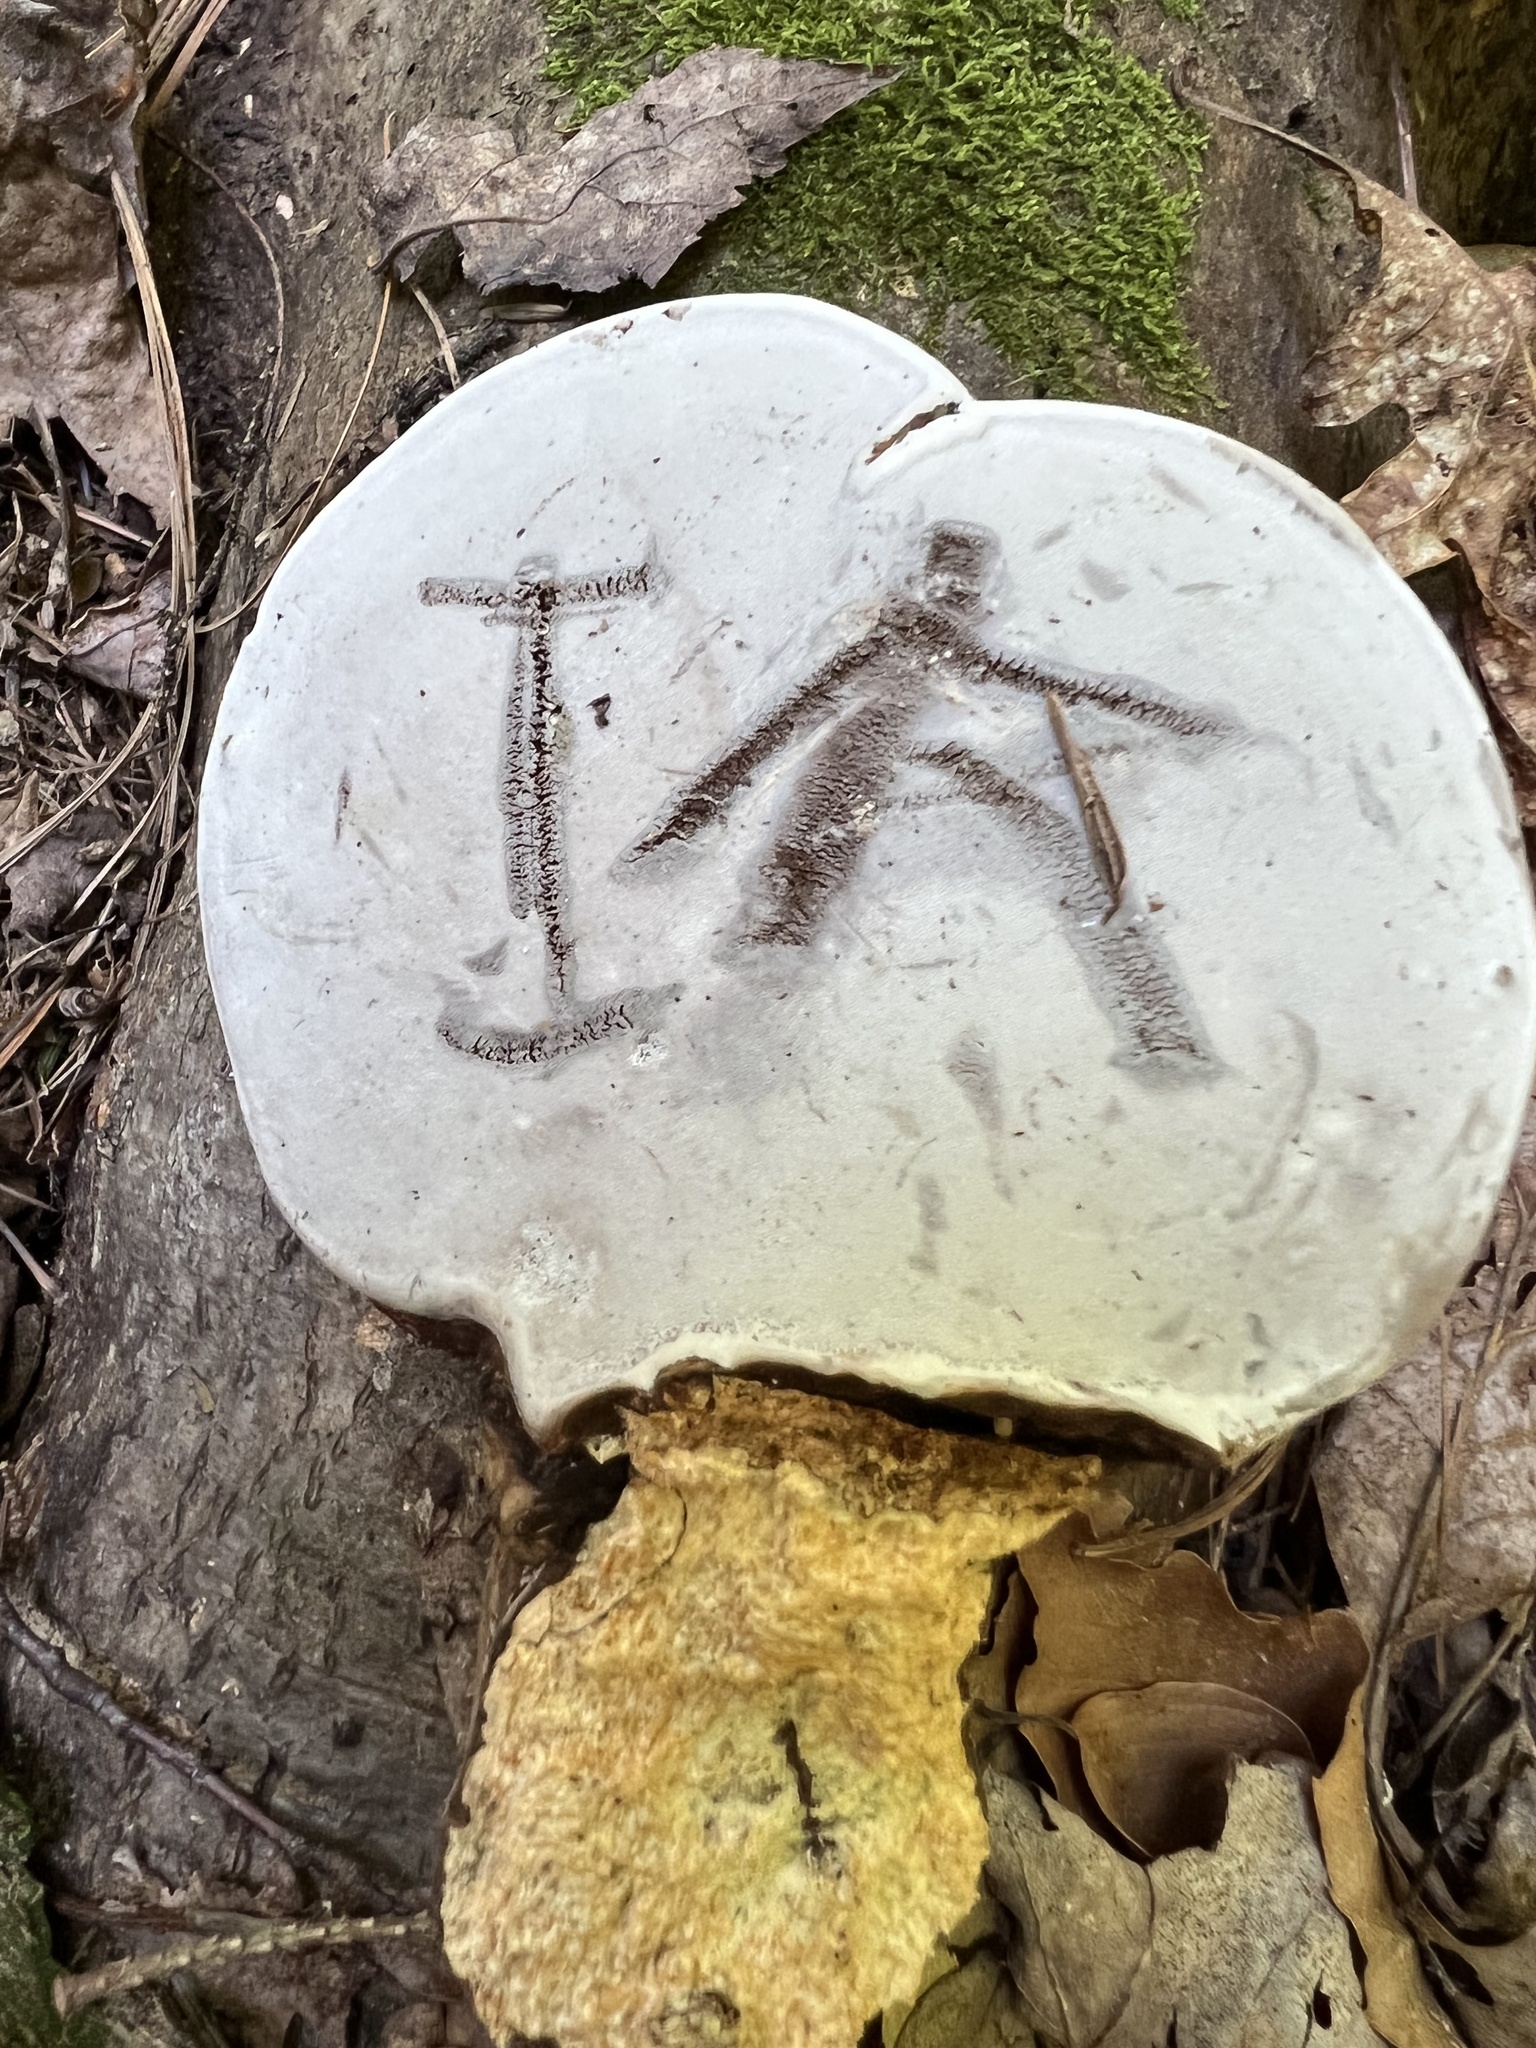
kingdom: Fungi
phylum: Basidiomycota
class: Agaricomycetes
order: Polyporales
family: Polyporaceae
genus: Ganoderma
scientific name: Ganoderma applanatum
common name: Artist's bracket
